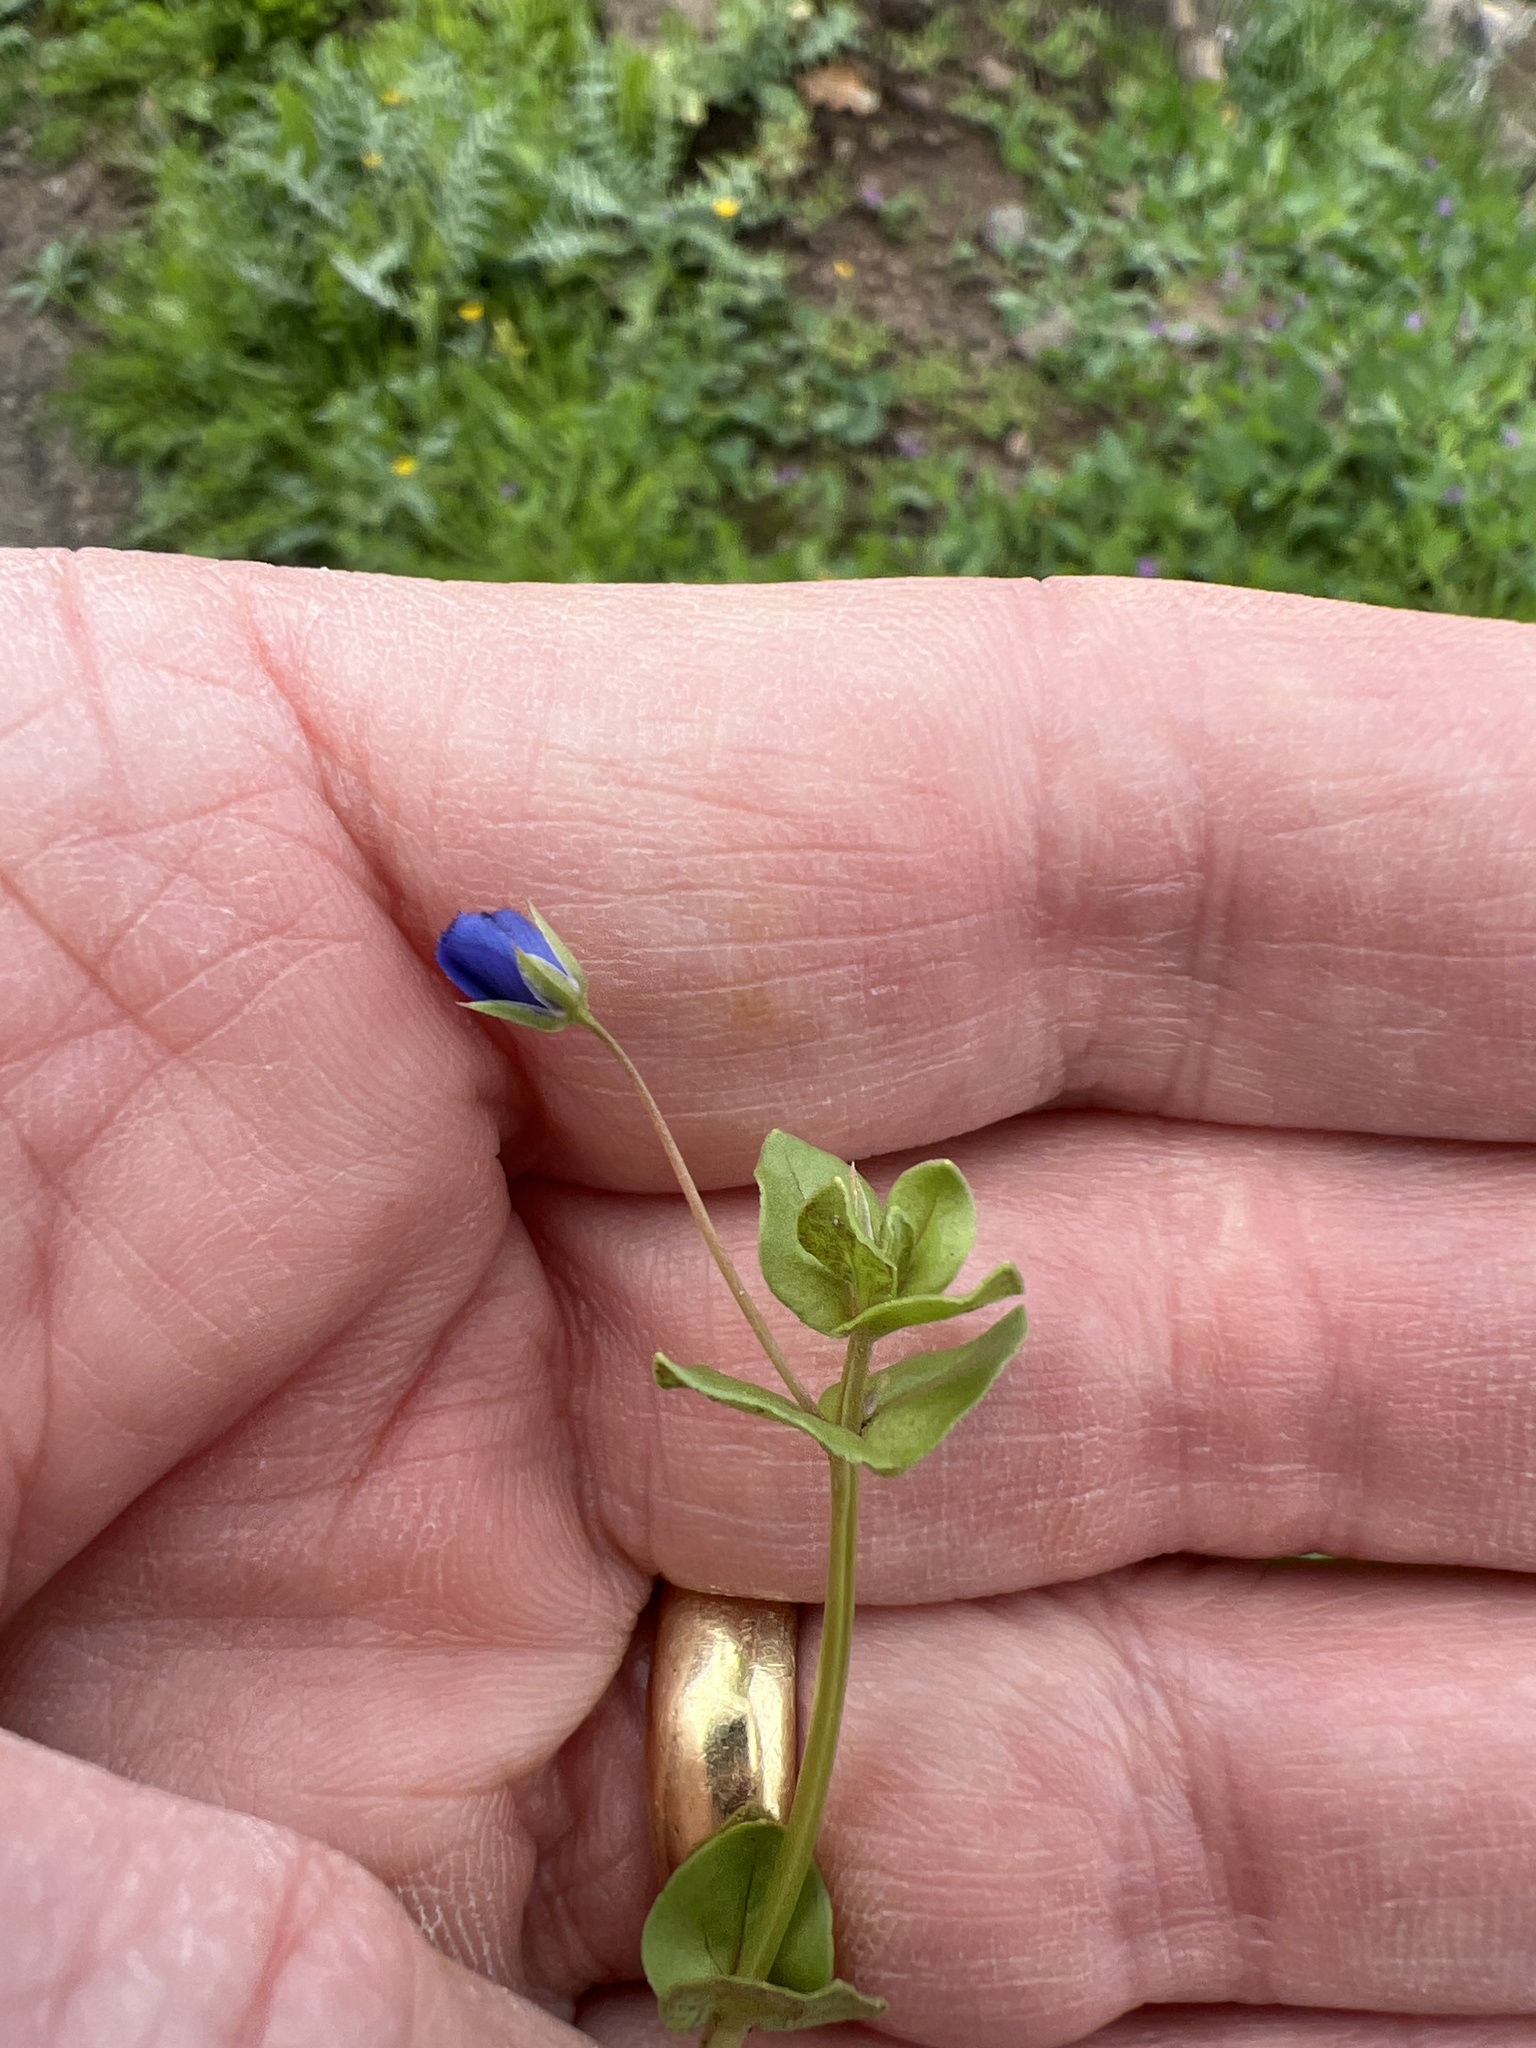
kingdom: Plantae
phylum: Tracheophyta
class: Magnoliopsida
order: Ericales
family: Primulaceae
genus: Lysimachia
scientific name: Lysimachia loeflingii
